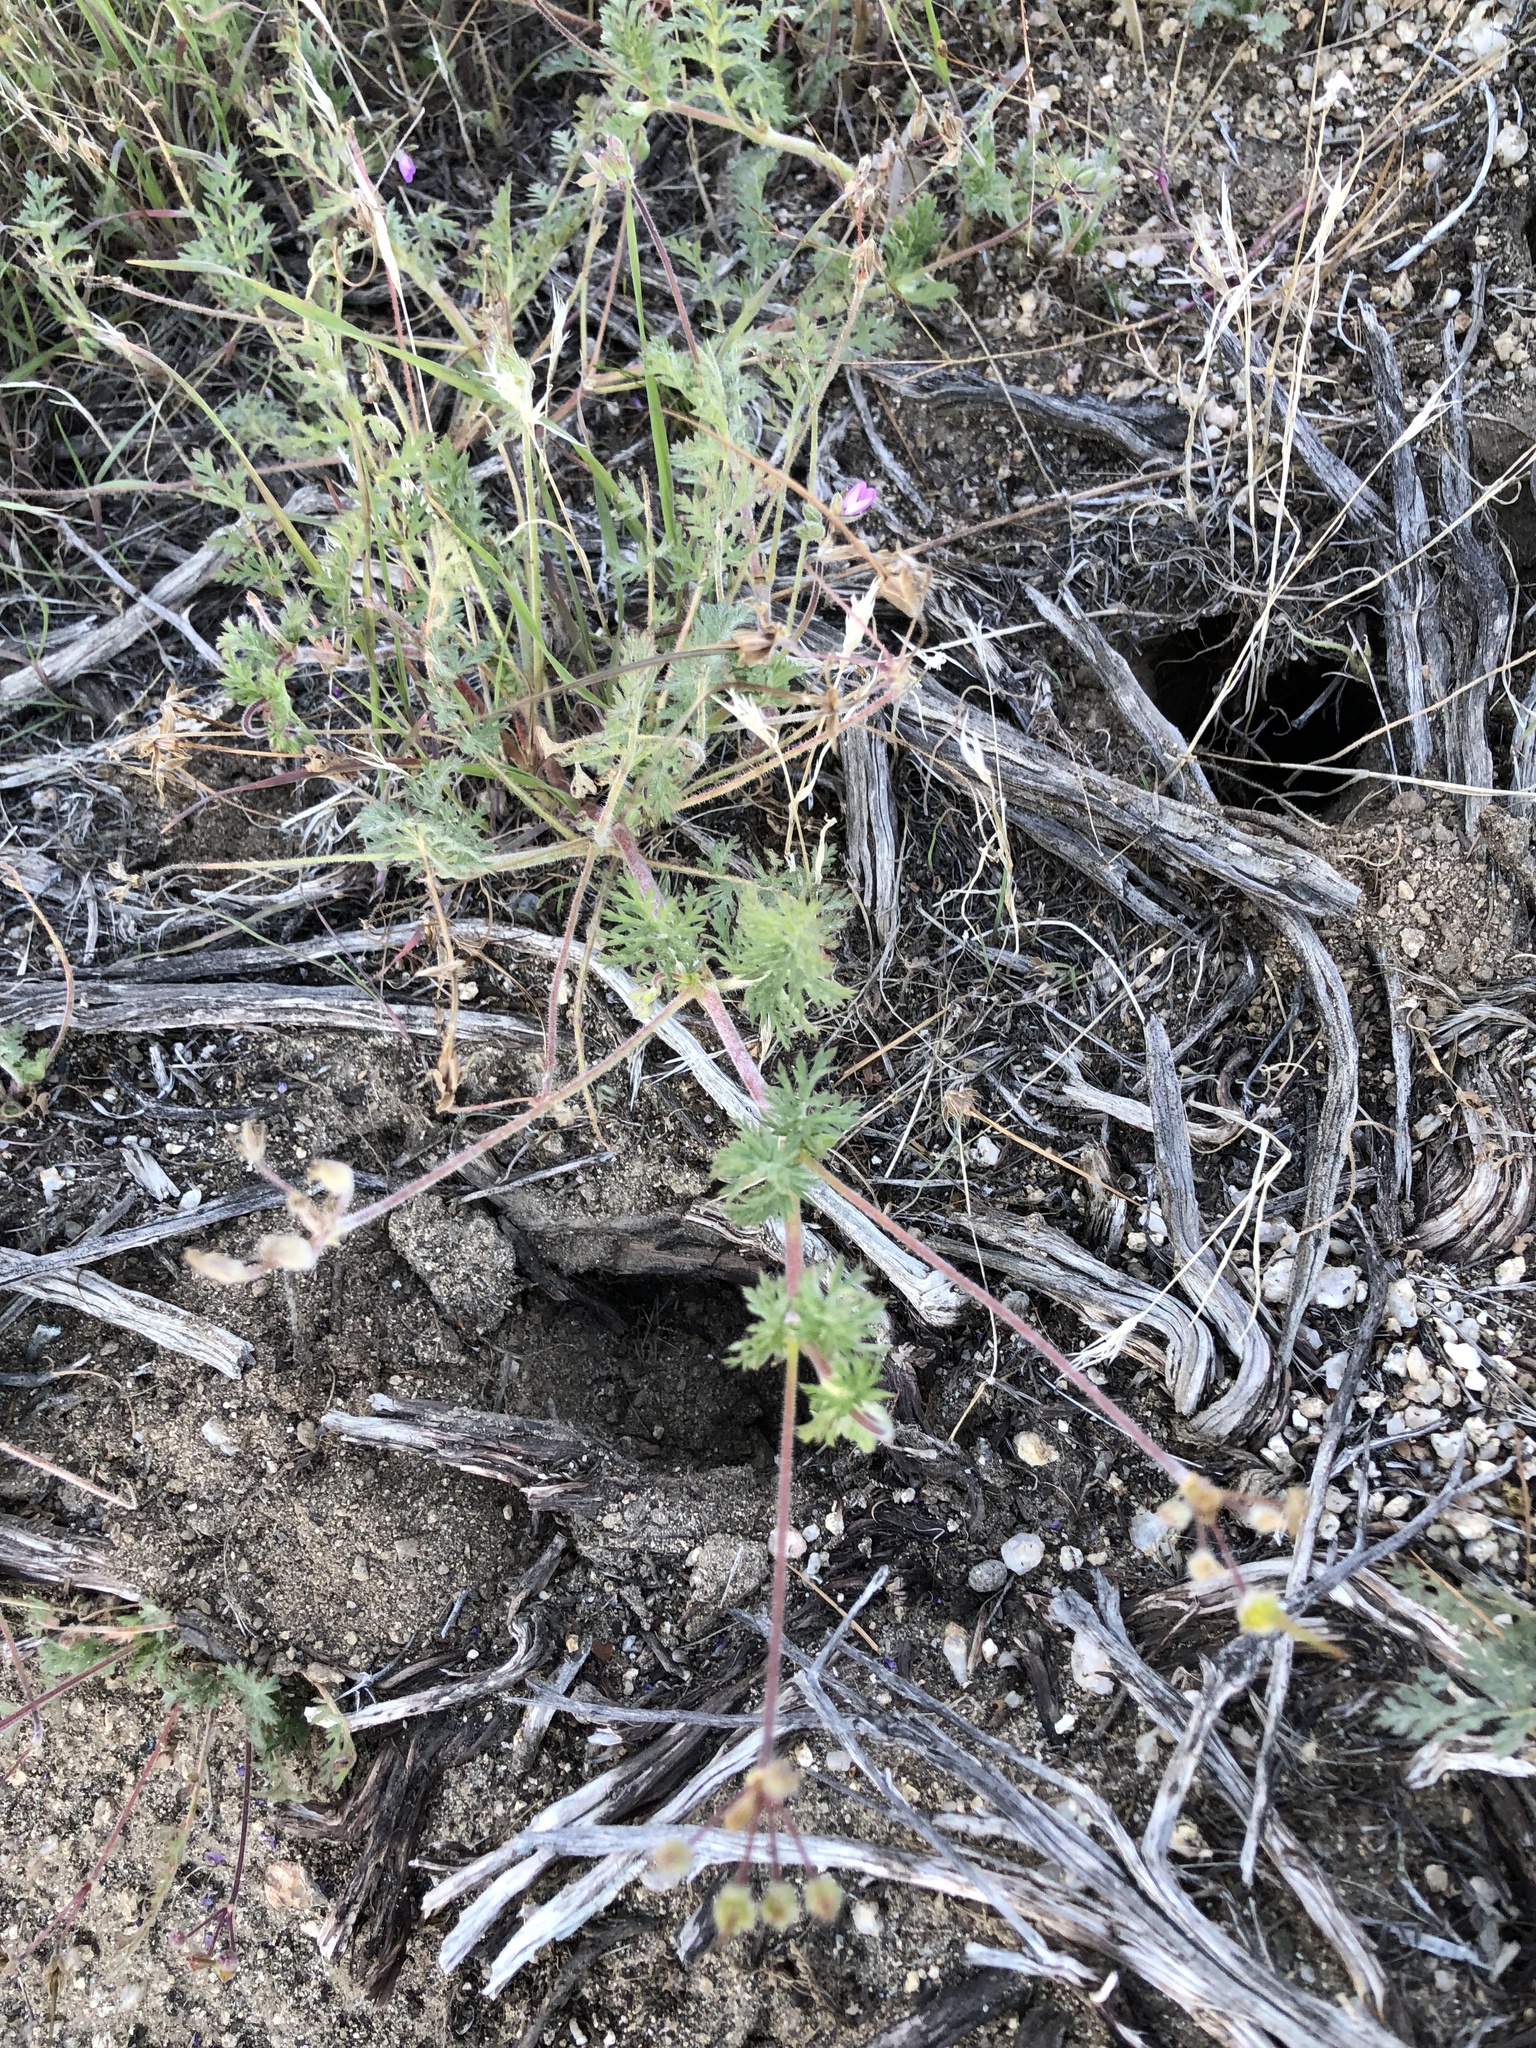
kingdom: Plantae
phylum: Tracheophyta
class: Magnoliopsida
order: Geraniales
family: Geraniaceae
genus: Erodium
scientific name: Erodium cicutarium
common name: Common stork's-bill
